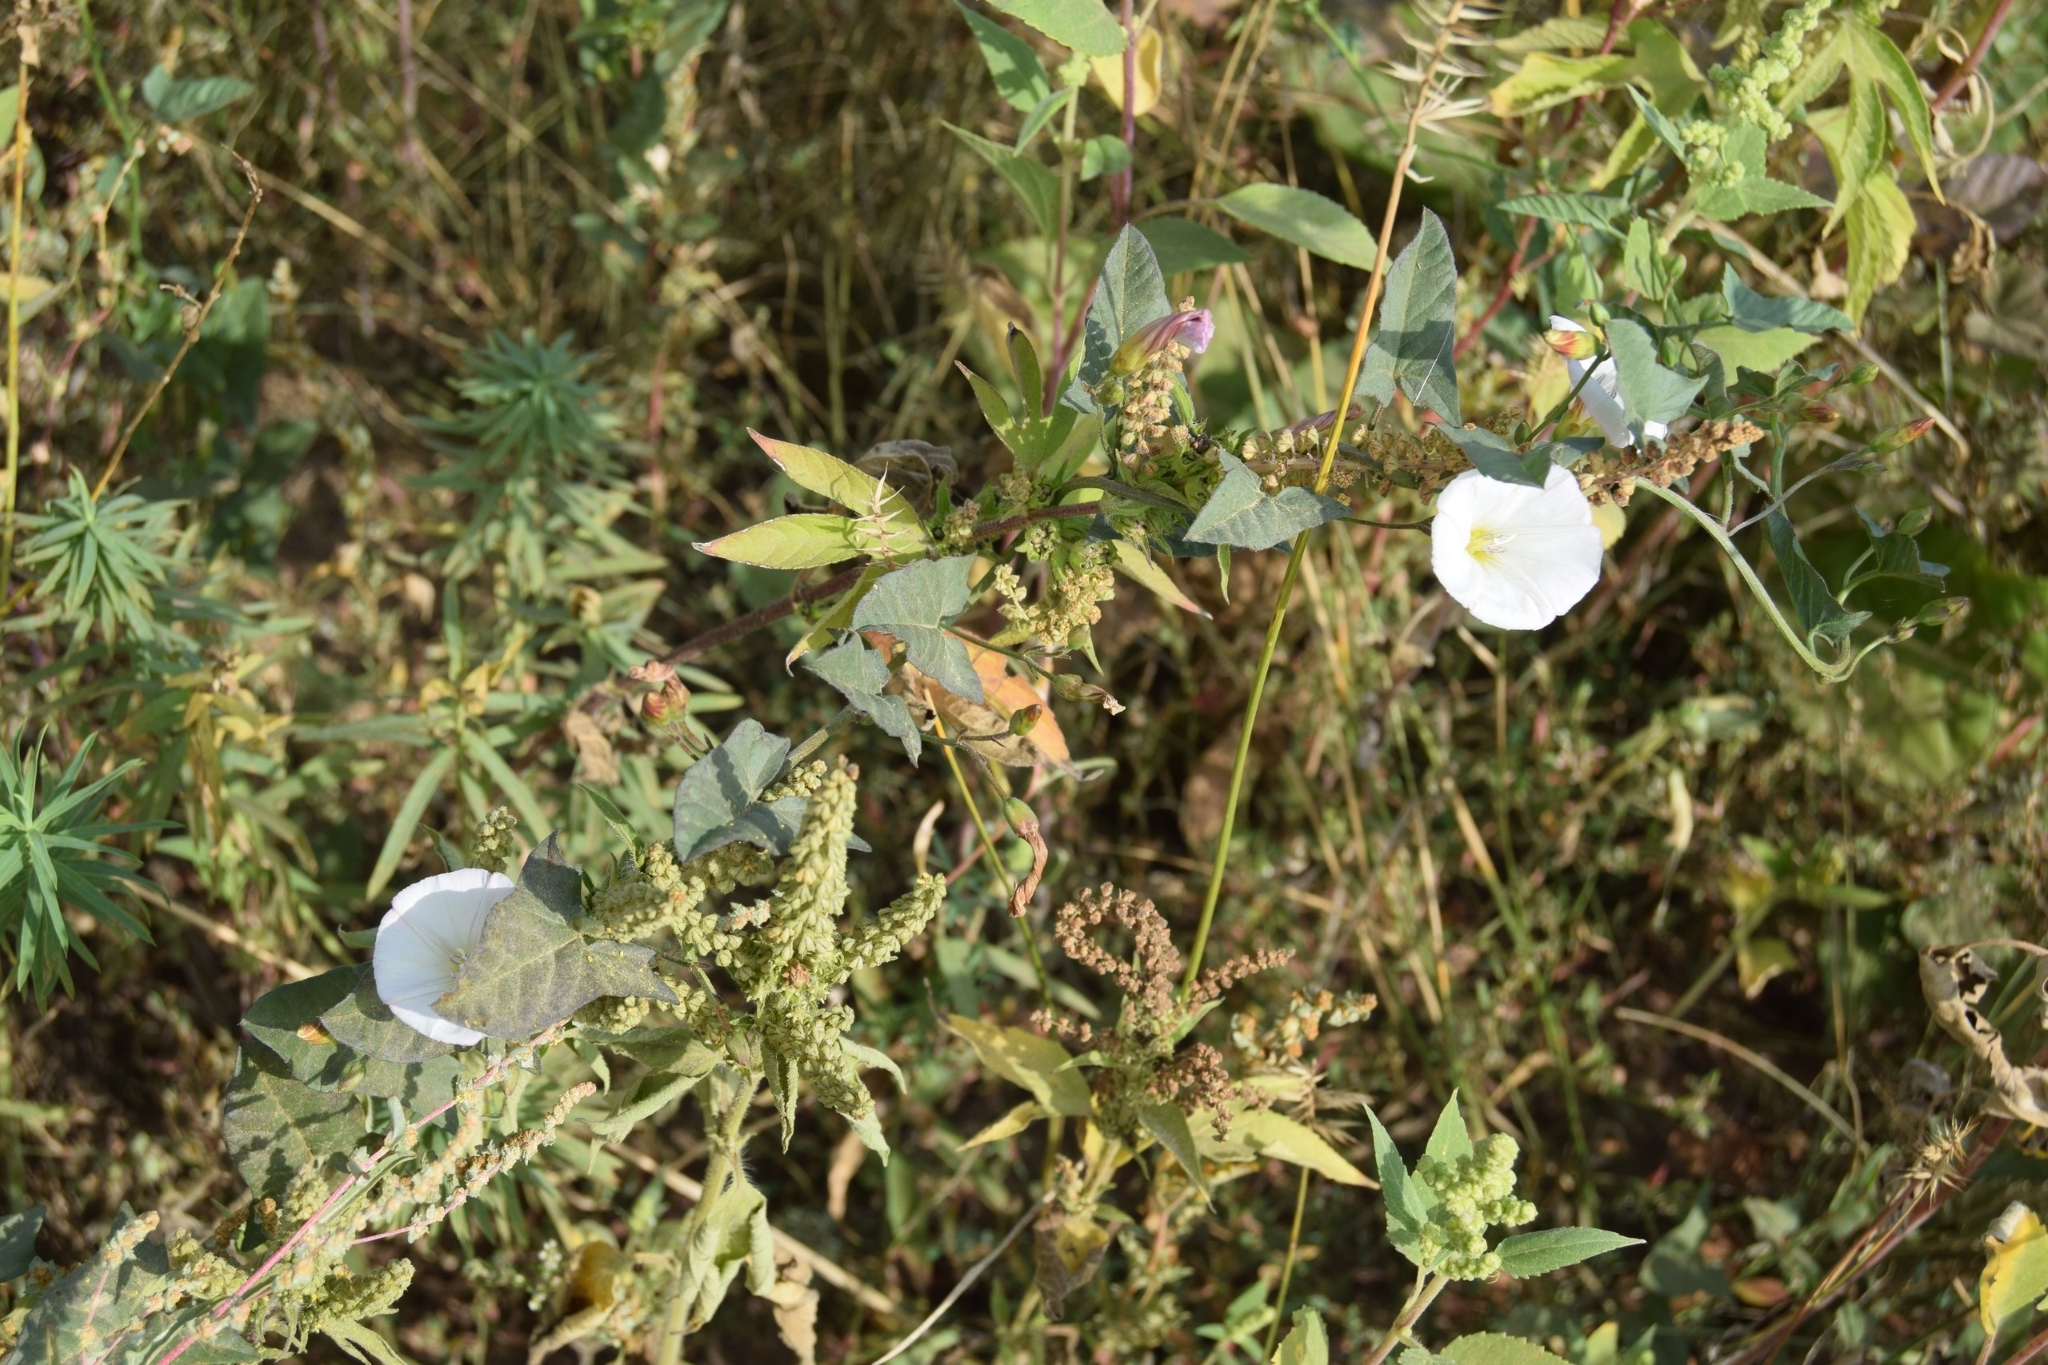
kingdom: Plantae
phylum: Tracheophyta
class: Magnoliopsida
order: Solanales
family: Convolvulaceae
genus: Convolvulus
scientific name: Convolvulus arvensis
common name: Field bindweed
